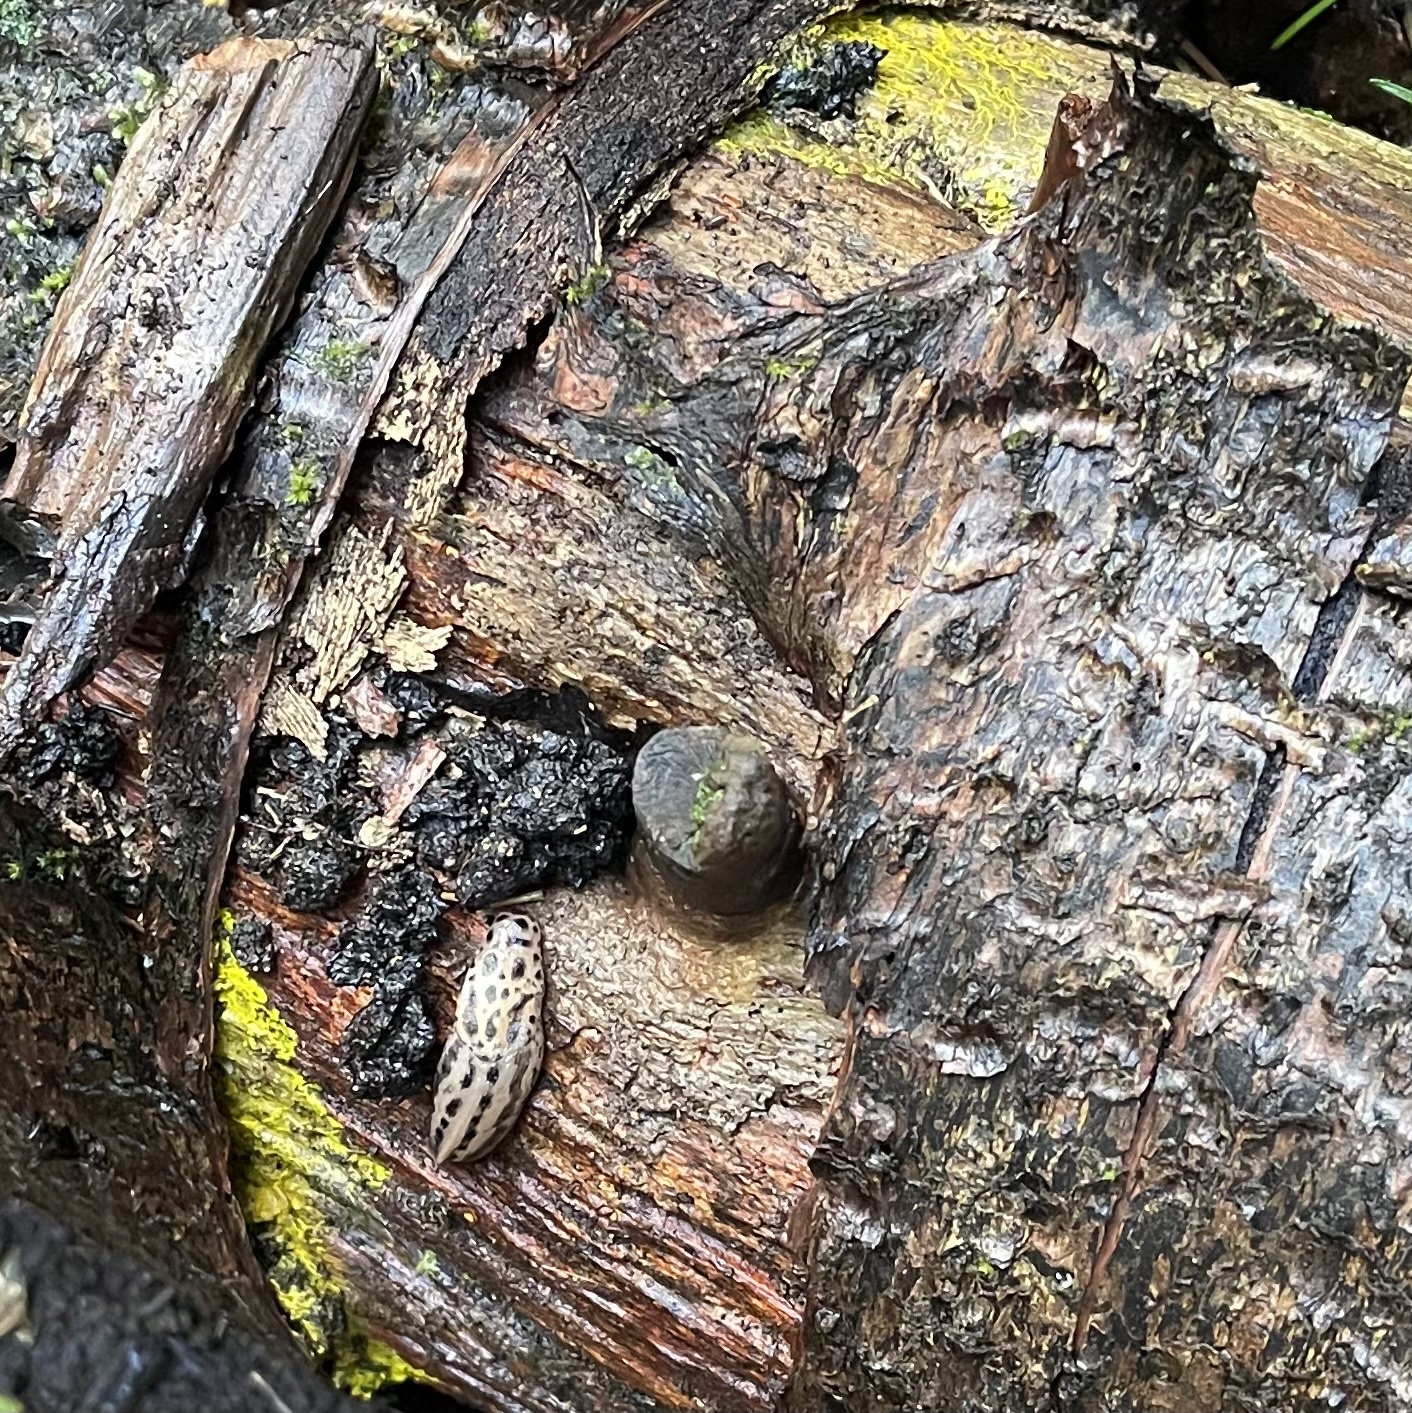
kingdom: Animalia
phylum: Mollusca
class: Gastropoda
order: Stylommatophora
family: Limacidae
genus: Limax
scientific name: Limax maximus
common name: Great grey slug
